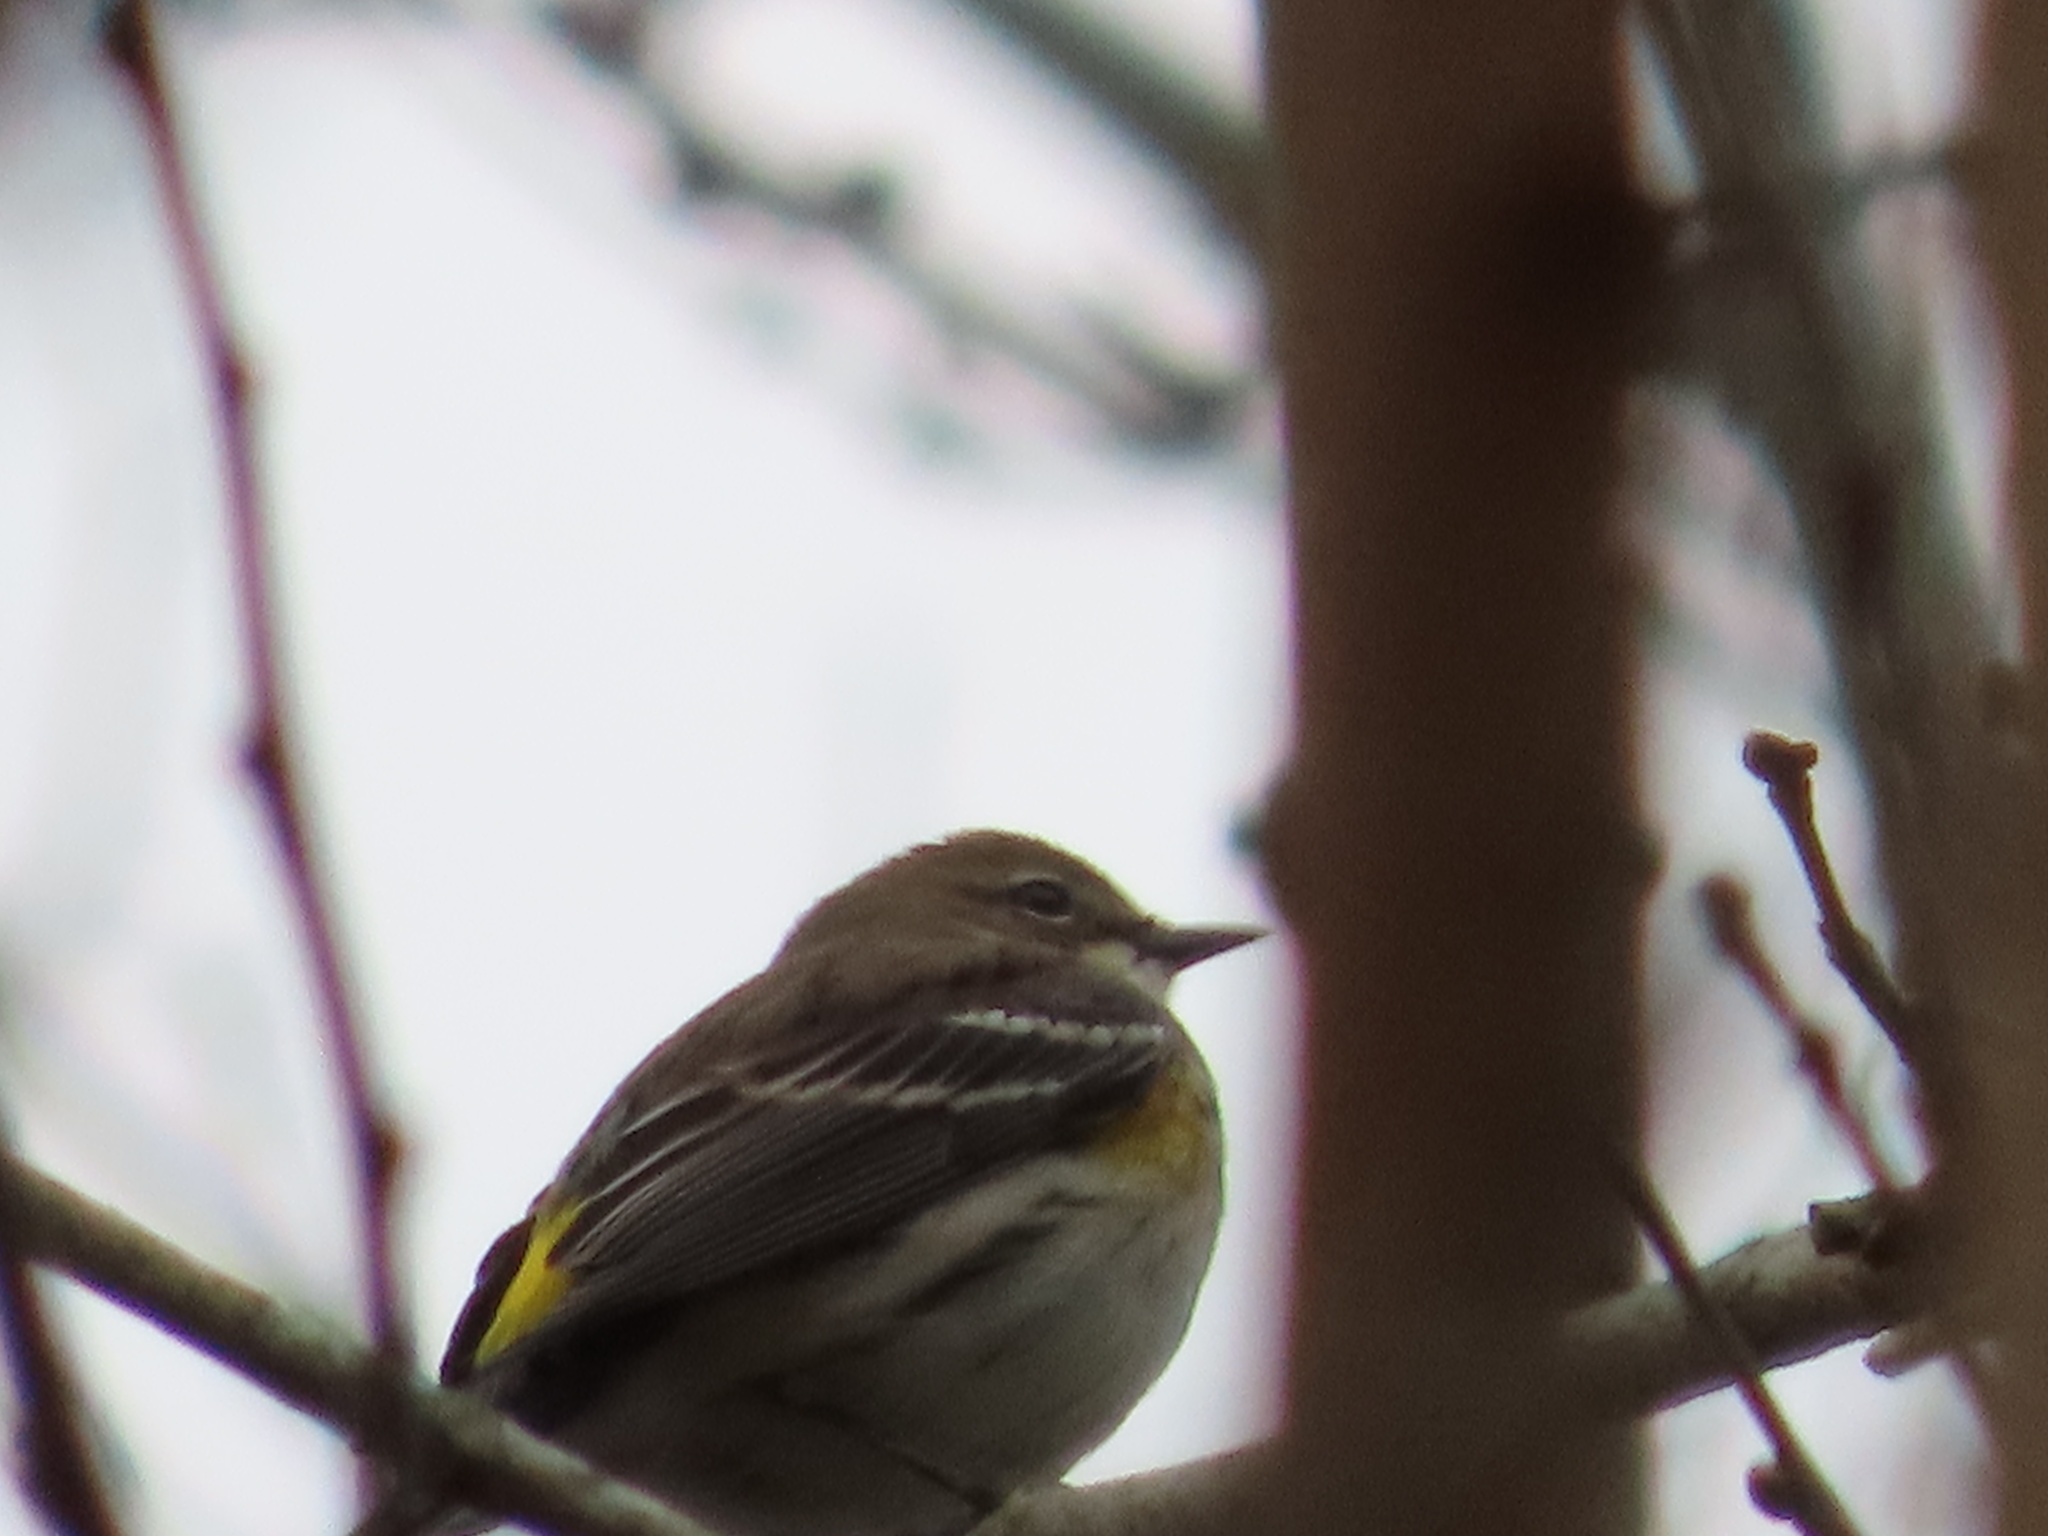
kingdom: Animalia
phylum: Chordata
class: Aves
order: Passeriformes
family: Parulidae
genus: Setophaga
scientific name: Setophaga coronata
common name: Myrtle warbler
